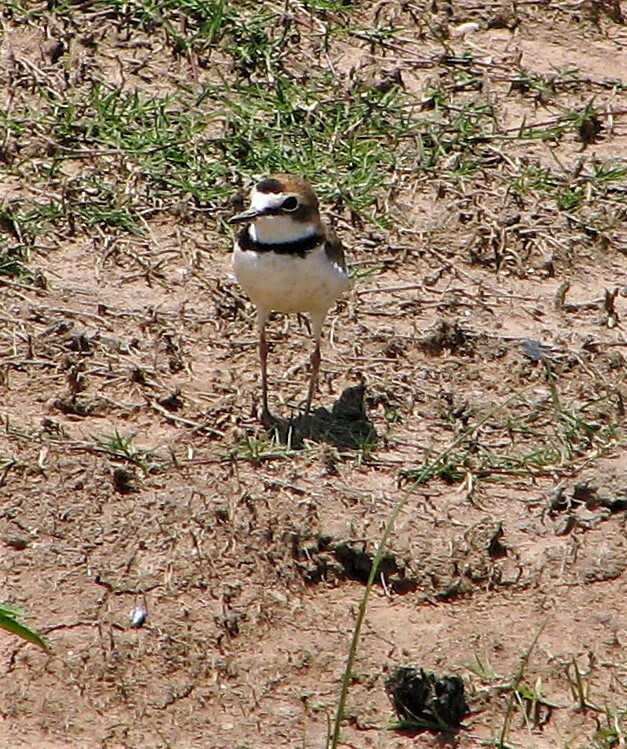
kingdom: Animalia
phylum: Chordata
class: Aves
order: Charadriiformes
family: Charadriidae
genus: Anarhynchus
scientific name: Anarhynchus
